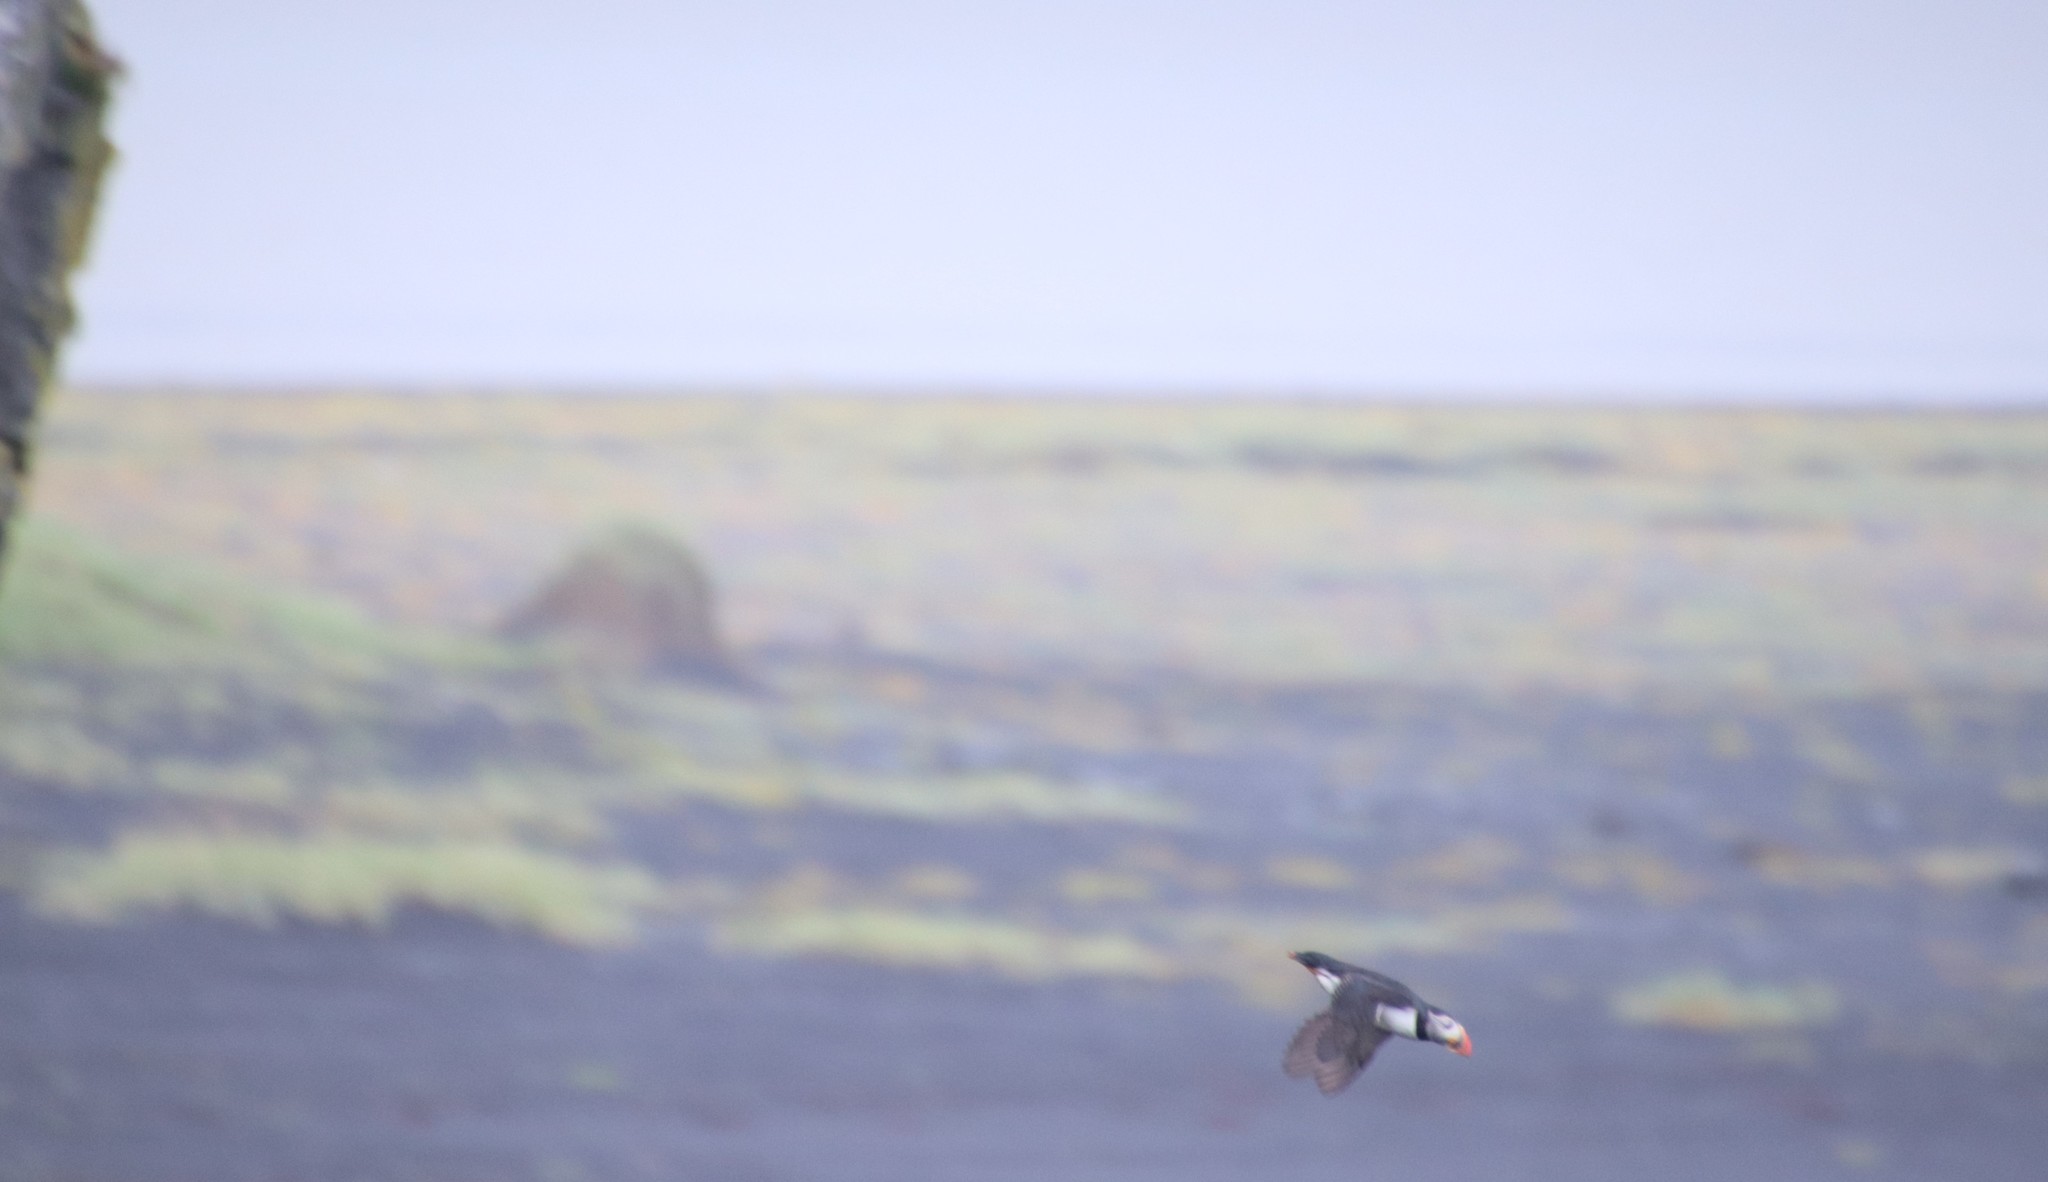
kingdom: Animalia
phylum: Chordata
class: Aves
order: Charadriiformes
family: Alcidae
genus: Fratercula
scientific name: Fratercula arctica
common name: Atlantic puffin
